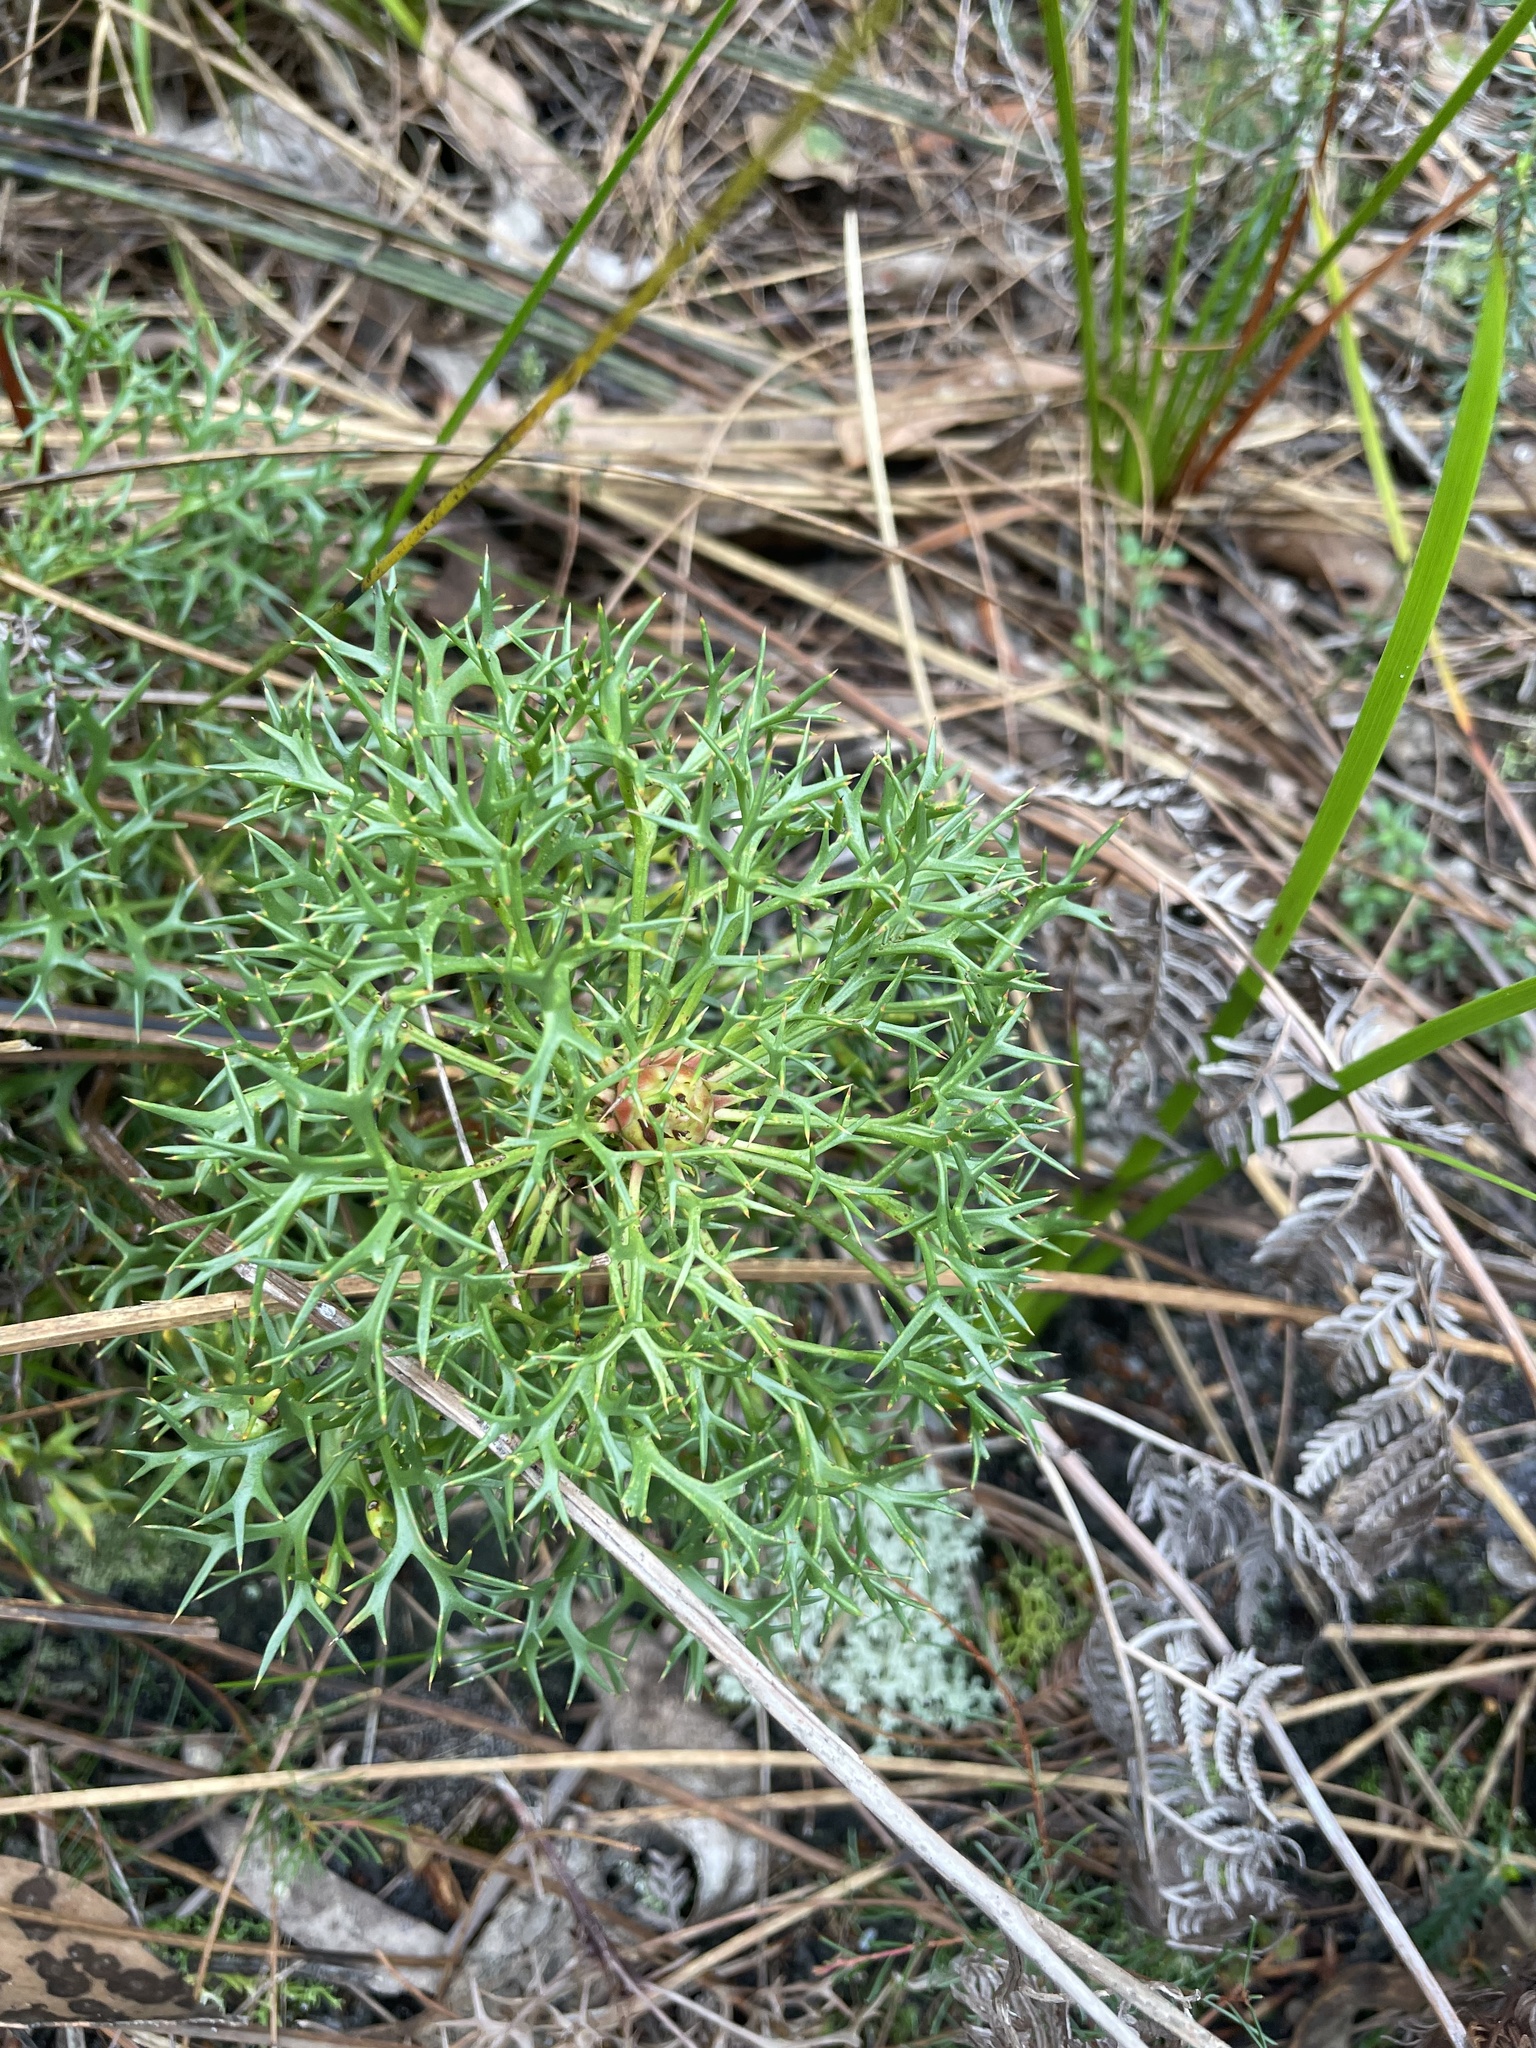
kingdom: Plantae
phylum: Tracheophyta
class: Magnoliopsida
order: Proteales
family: Proteaceae
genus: Isopogon
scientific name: Isopogon ceratophyllus
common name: Horny cone-bush
